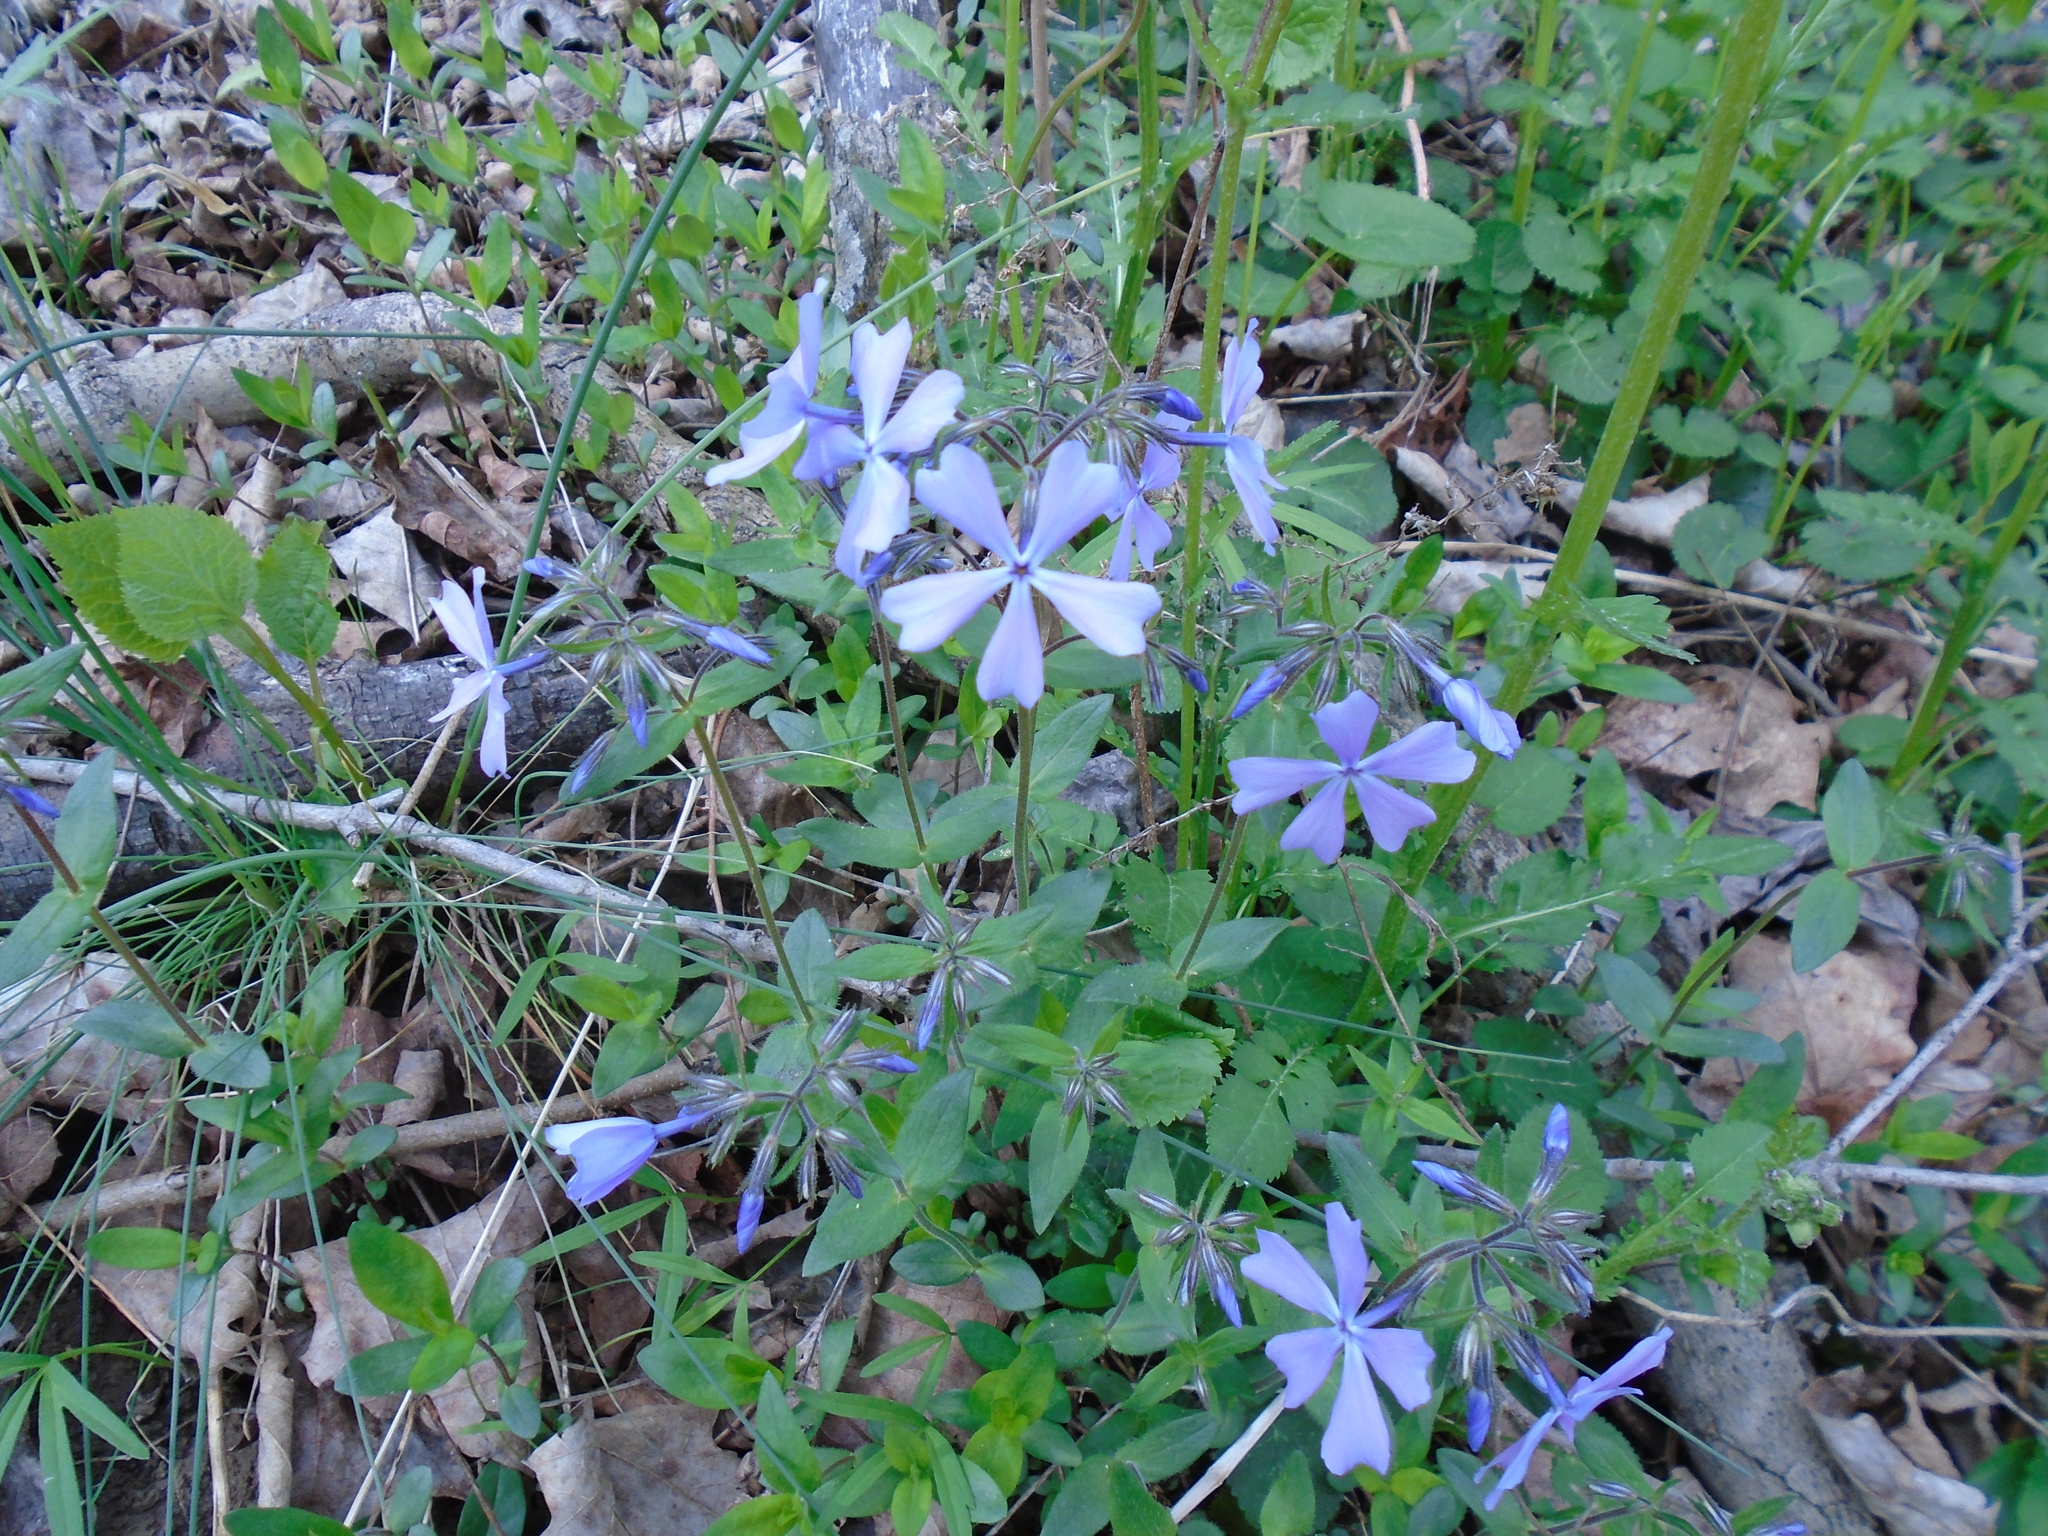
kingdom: Plantae
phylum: Tracheophyta
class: Magnoliopsida
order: Ericales
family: Polemoniaceae
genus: Phlox
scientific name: Phlox divaricata
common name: Blue phlox
